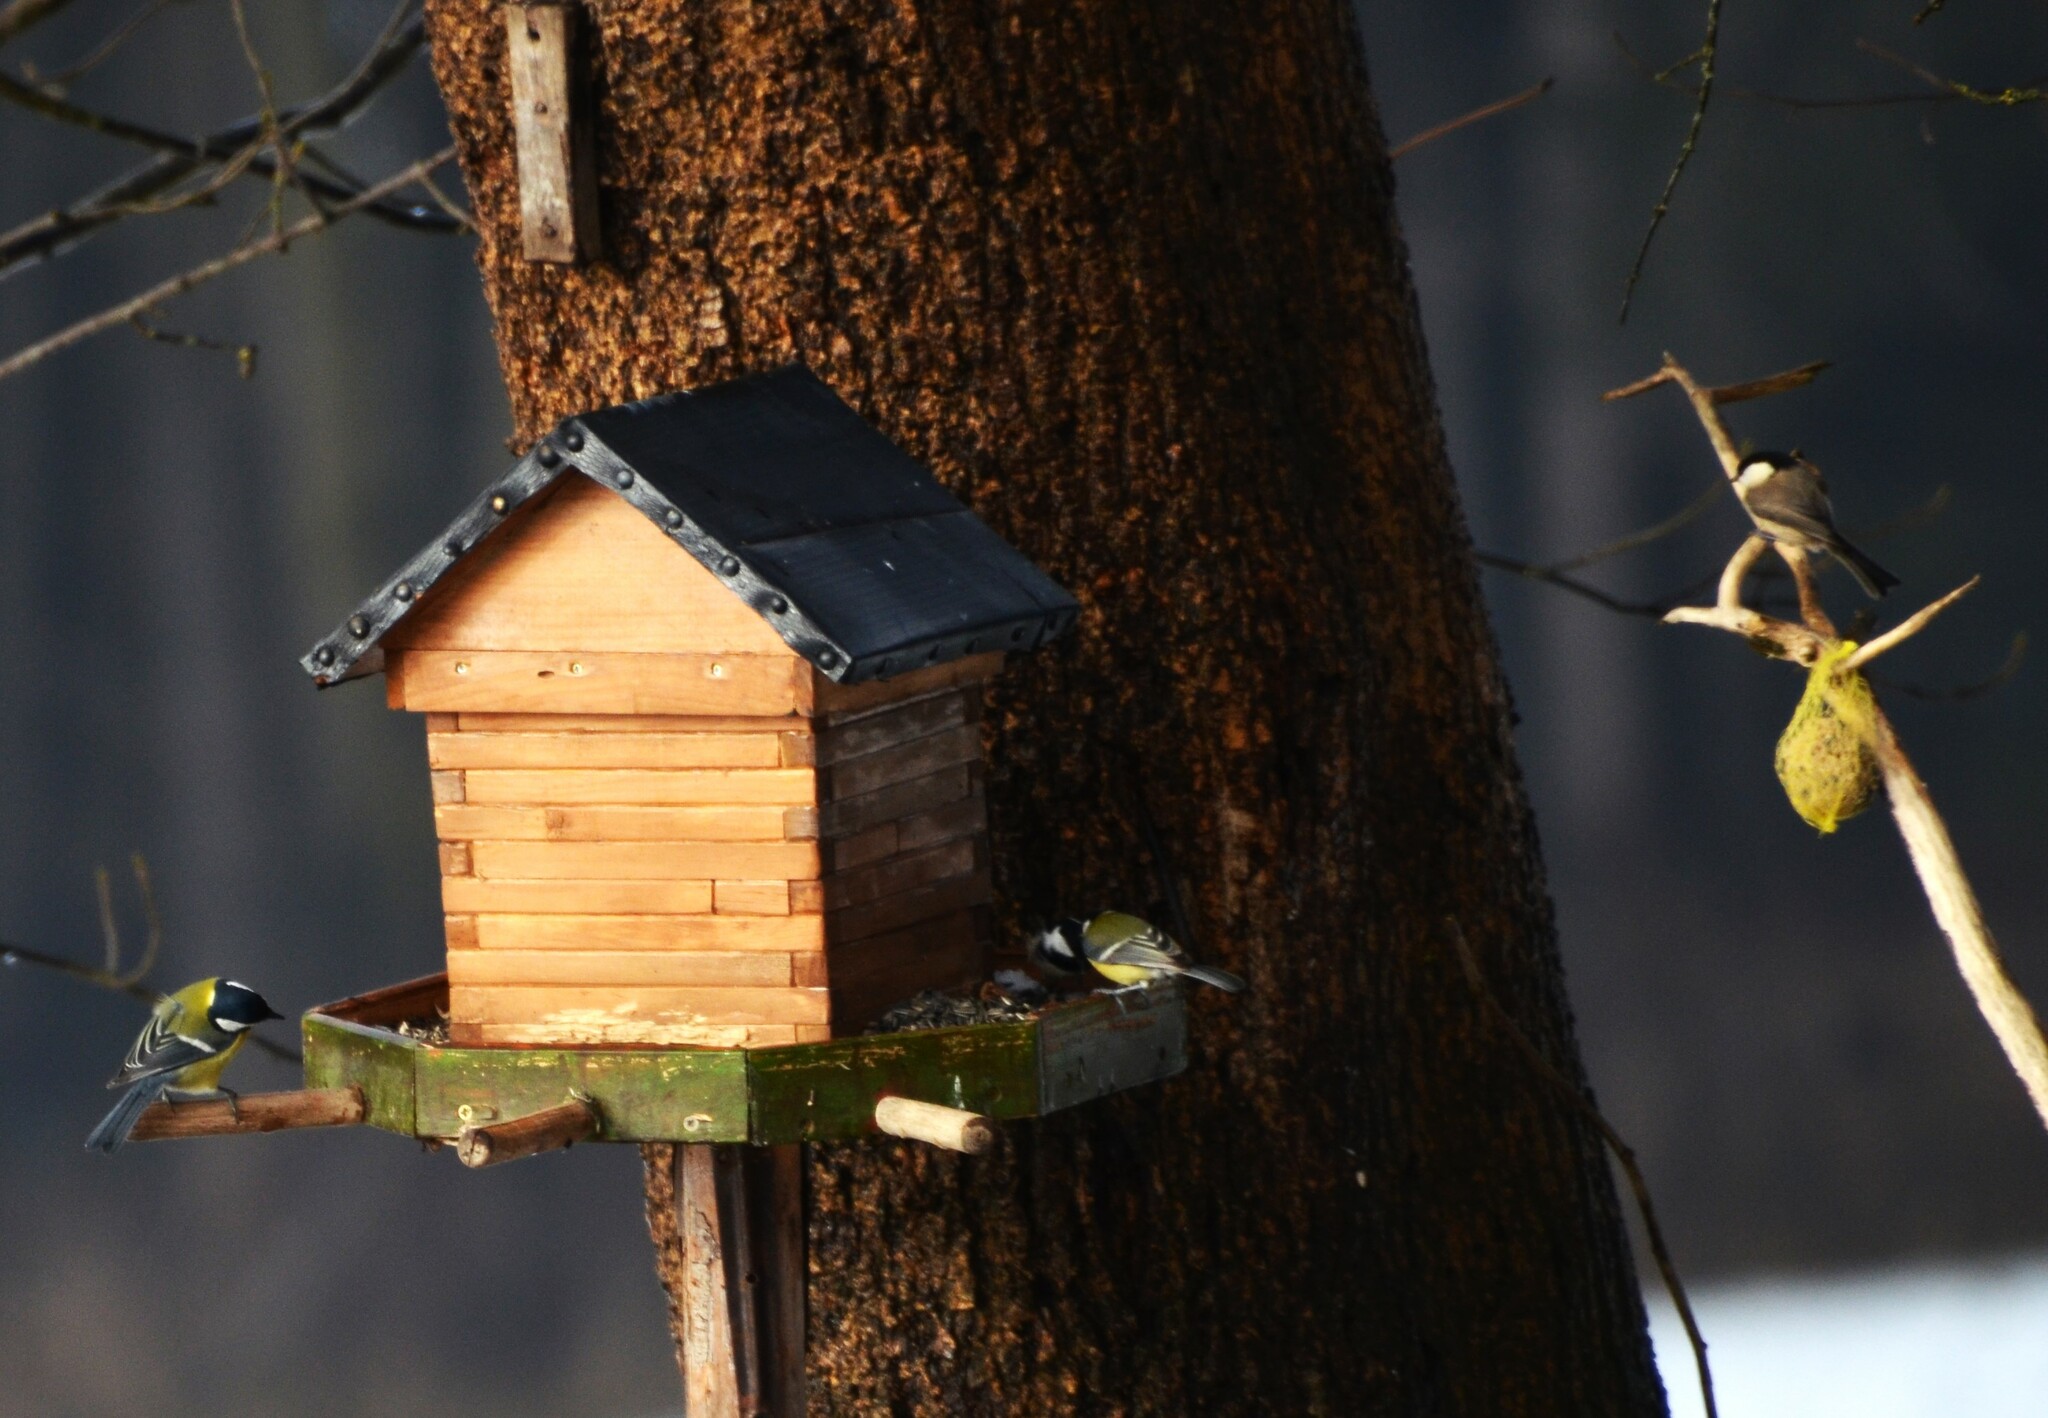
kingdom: Animalia
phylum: Chordata
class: Aves
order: Passeriformes
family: Paridae
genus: Parus
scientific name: Parus major
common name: Great tit
